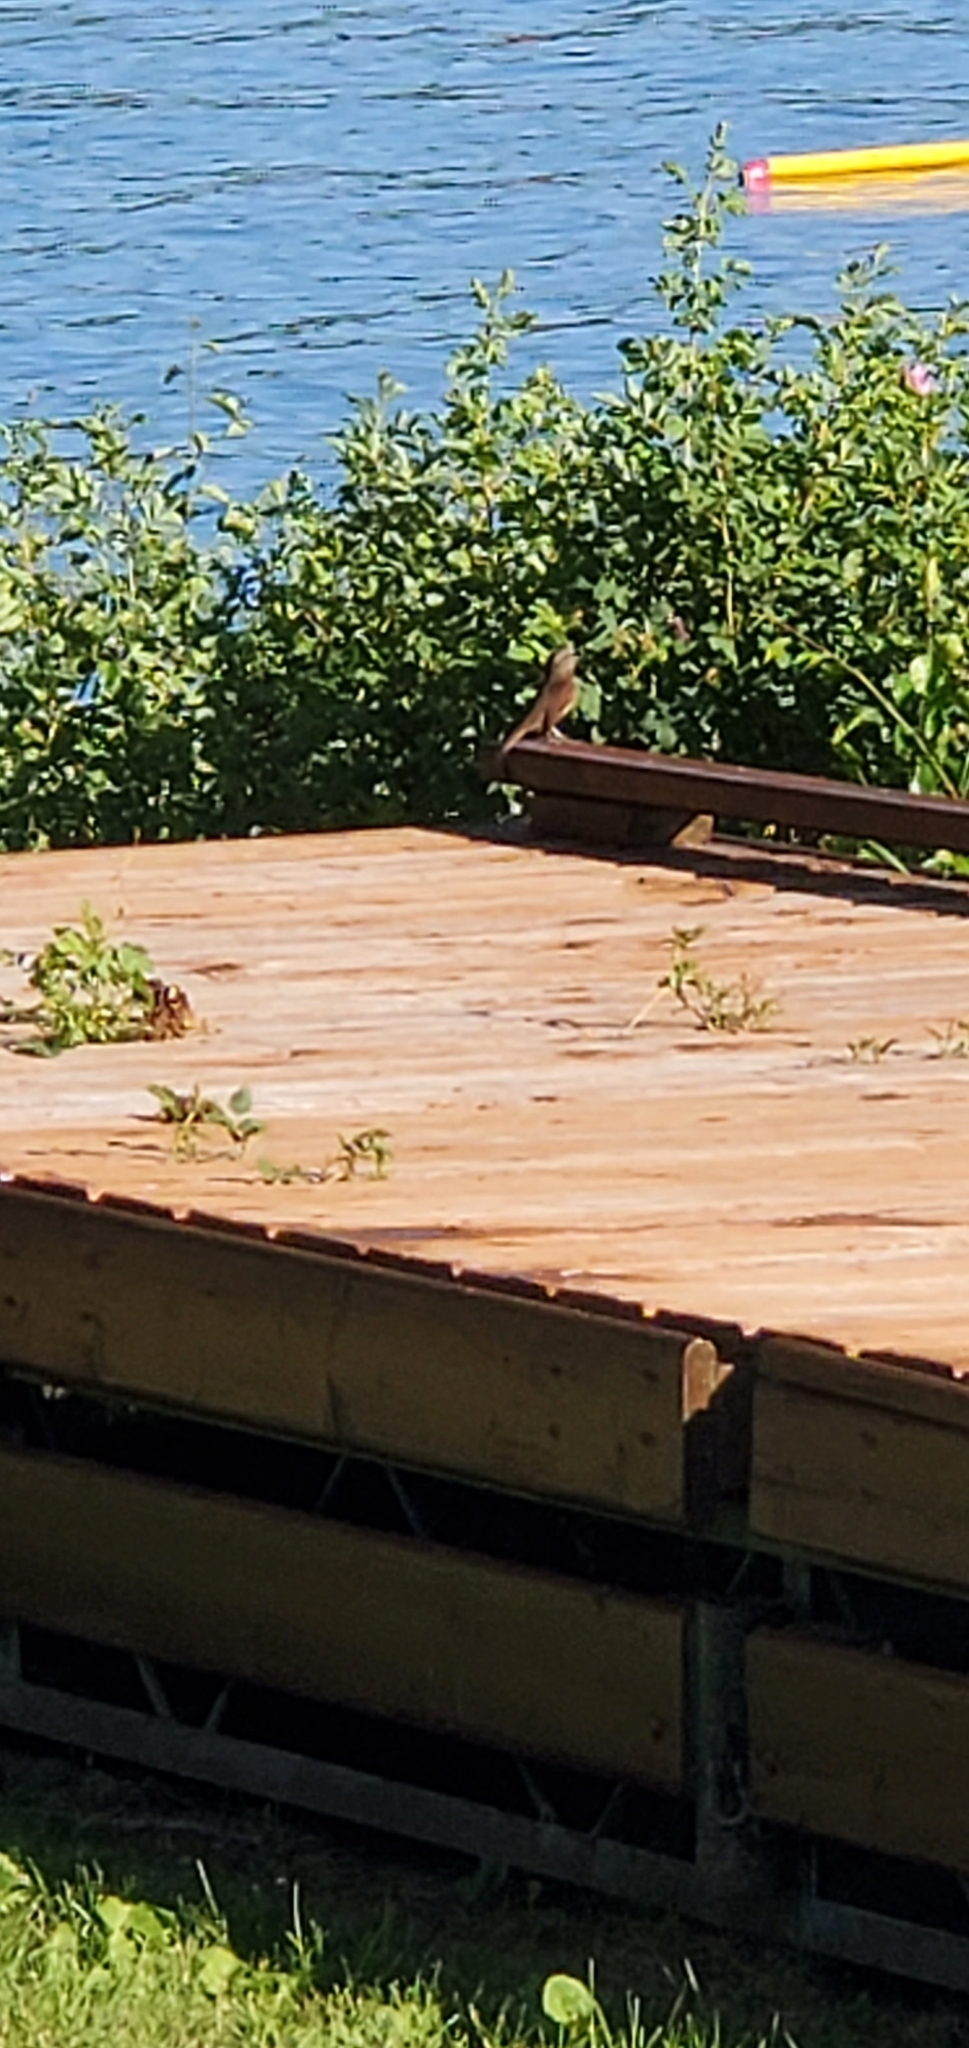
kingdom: Animalia
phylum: Chordata
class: Aves
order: Passeriformes
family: Passerellidae
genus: Melospiza
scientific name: Melospiza melodia
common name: Song sparrow
